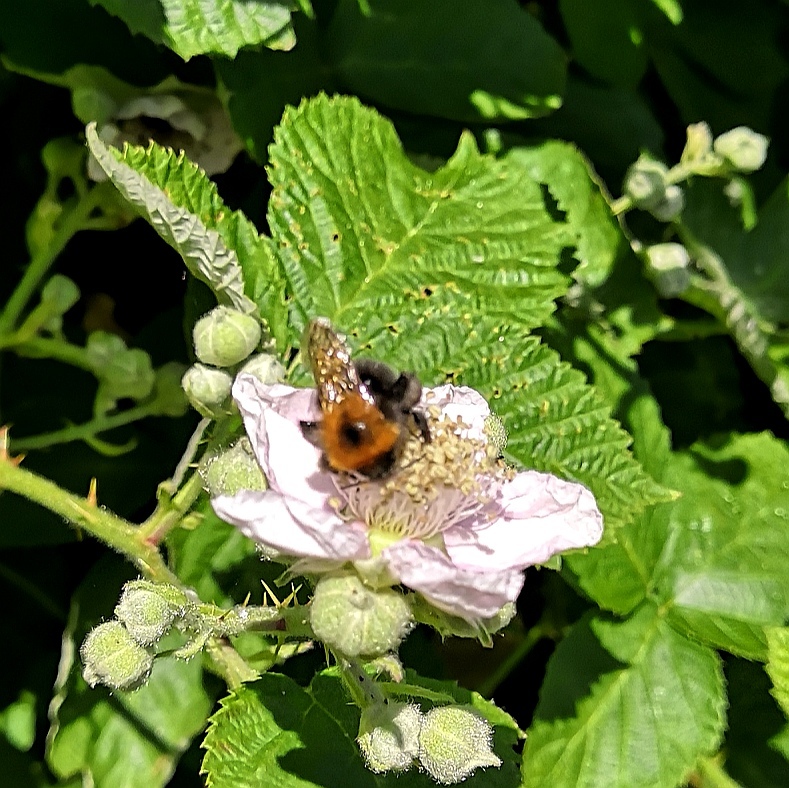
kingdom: Animalia
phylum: Arthropoda
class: Insecta
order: Hymenoptera
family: Apidae
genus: Bombus
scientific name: Bombus hypnorum
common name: New garden bumblebee
